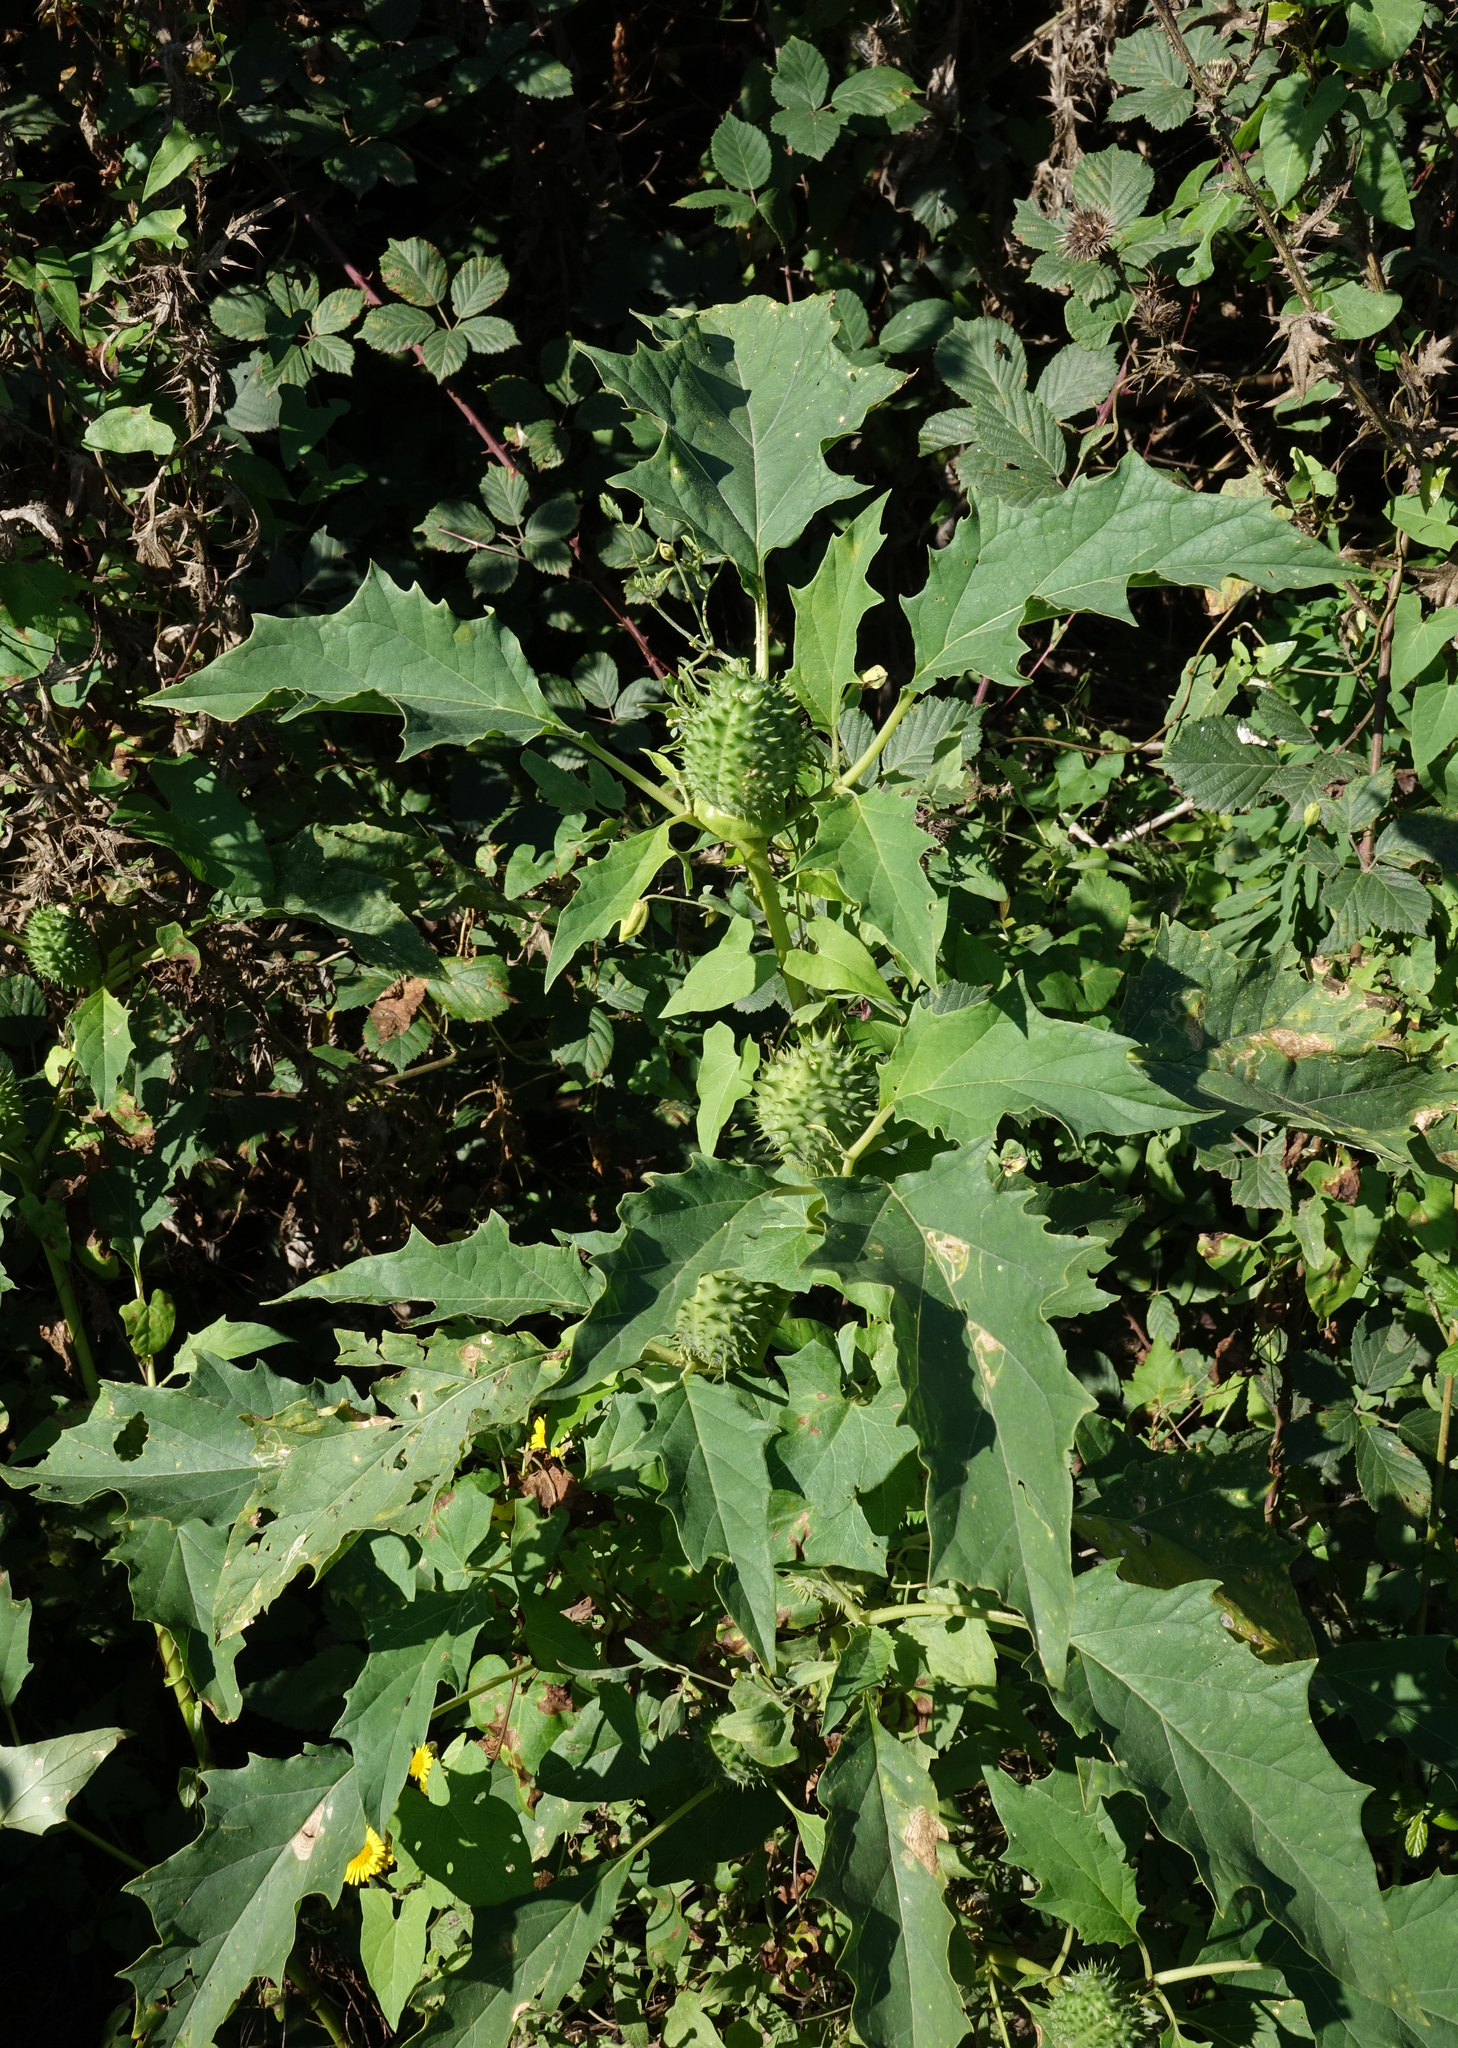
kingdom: Plantae
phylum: Tracheophyta
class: Magnoliopsida
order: Solanales
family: Solanaceae
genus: Datura
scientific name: Datura stramonium
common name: Thorn-apple
